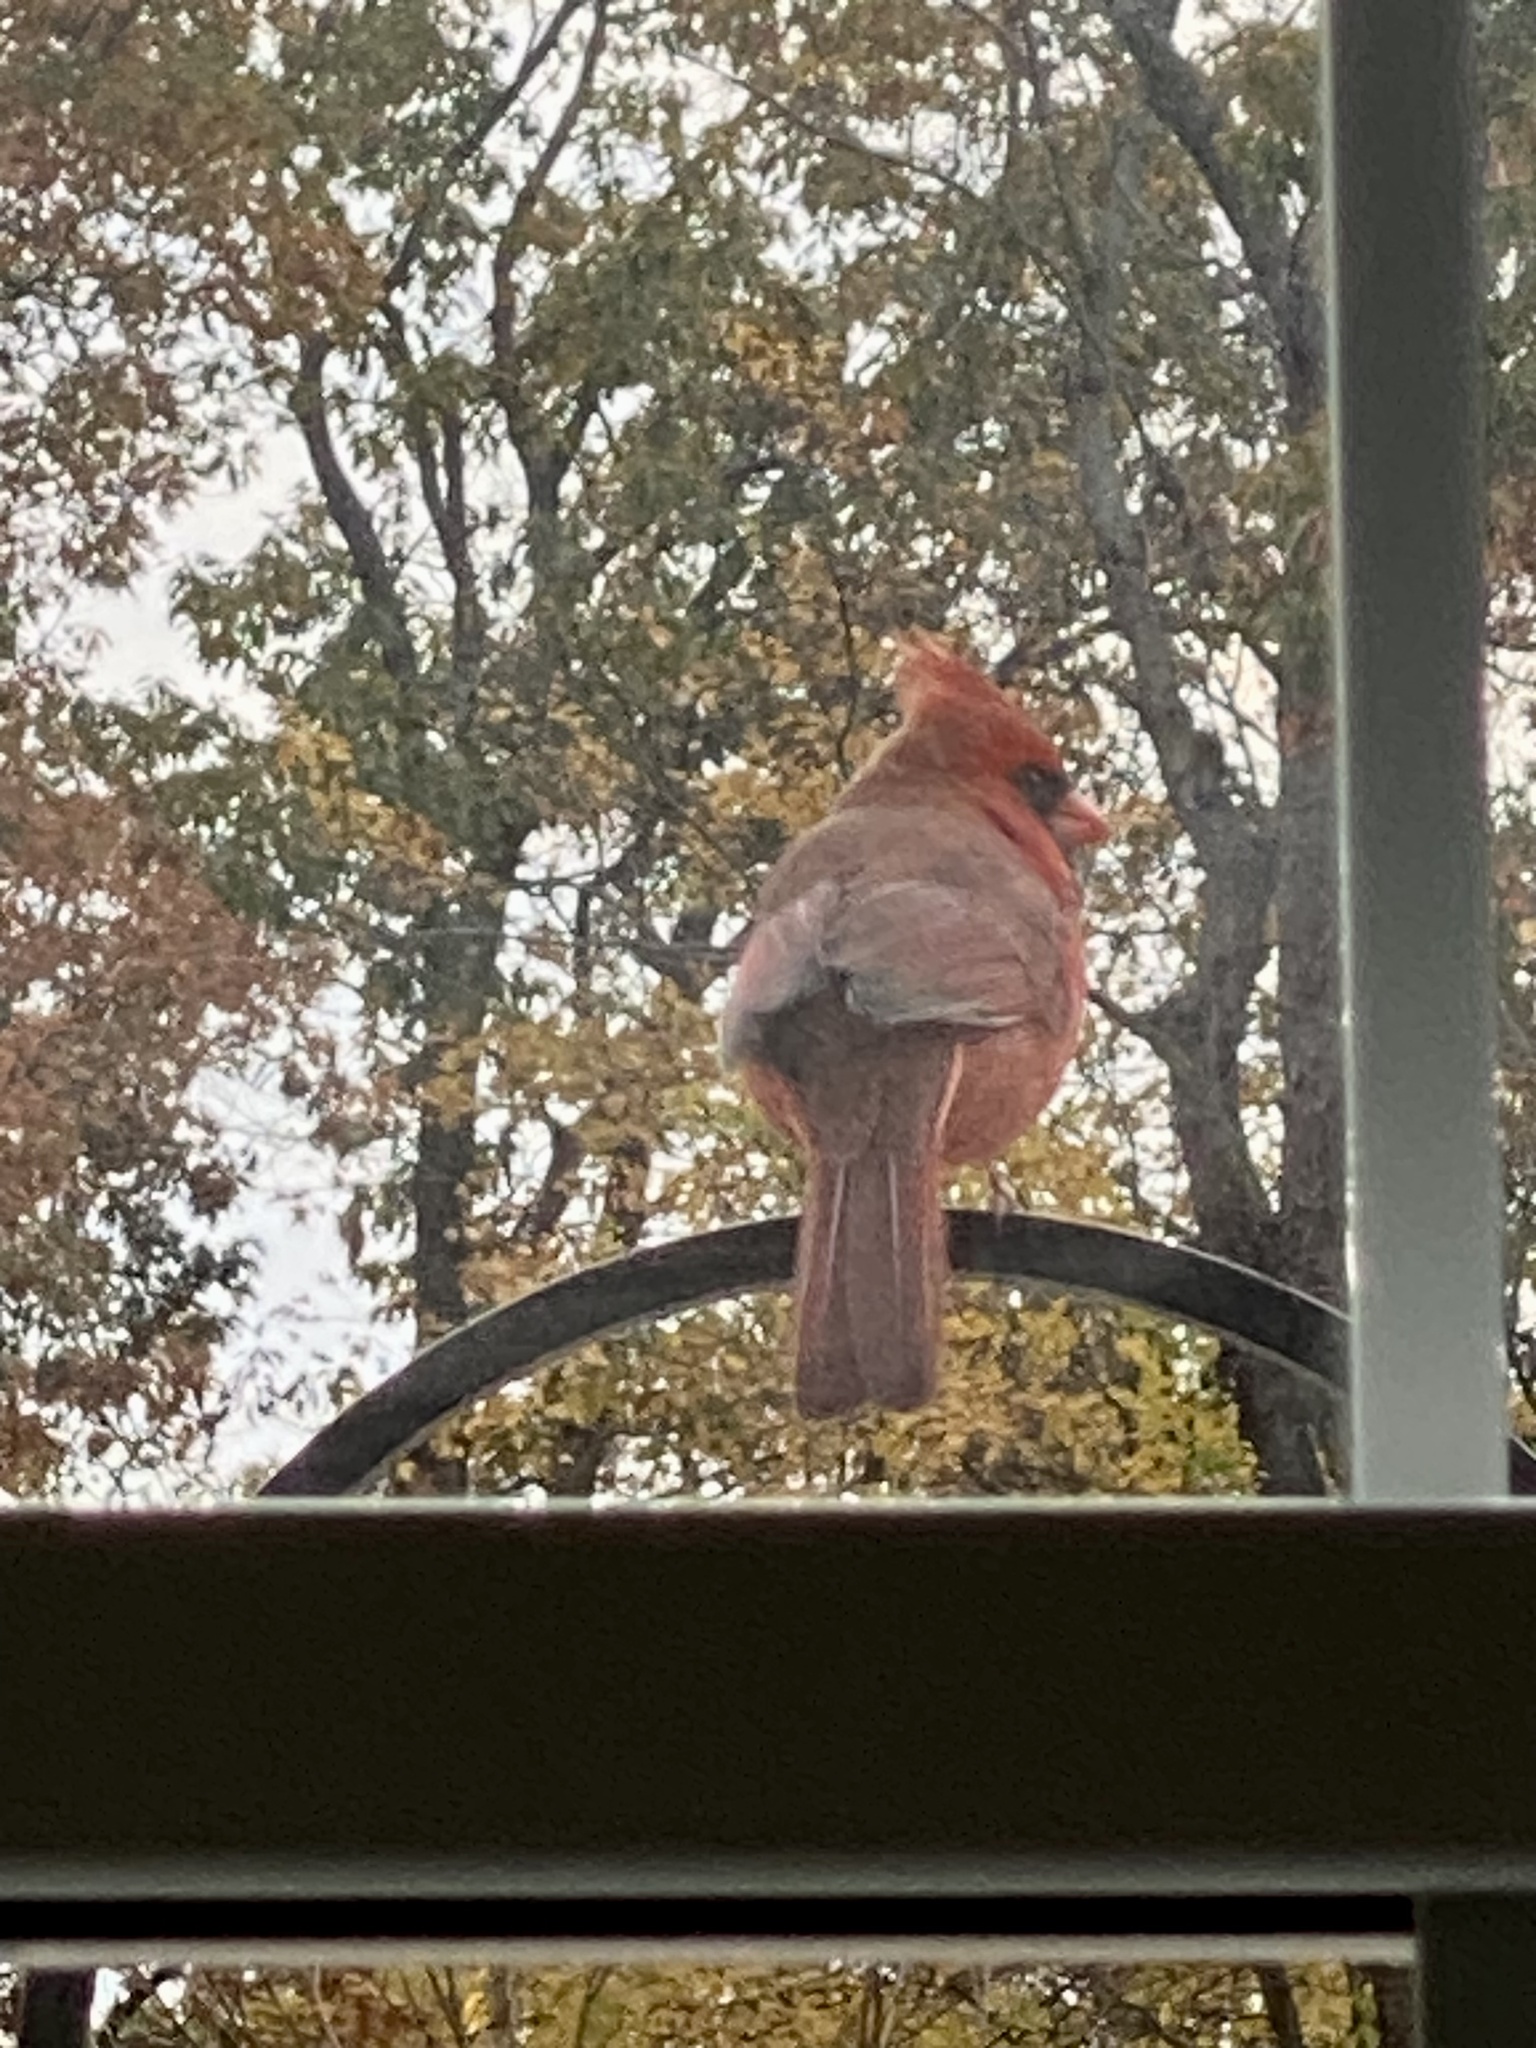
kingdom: Animalia
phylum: Chordata
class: Aves
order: Passeriformes
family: Cardinalidae
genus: Cardinalis
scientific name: Cardinalis cardinalis
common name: Northern cardinal
